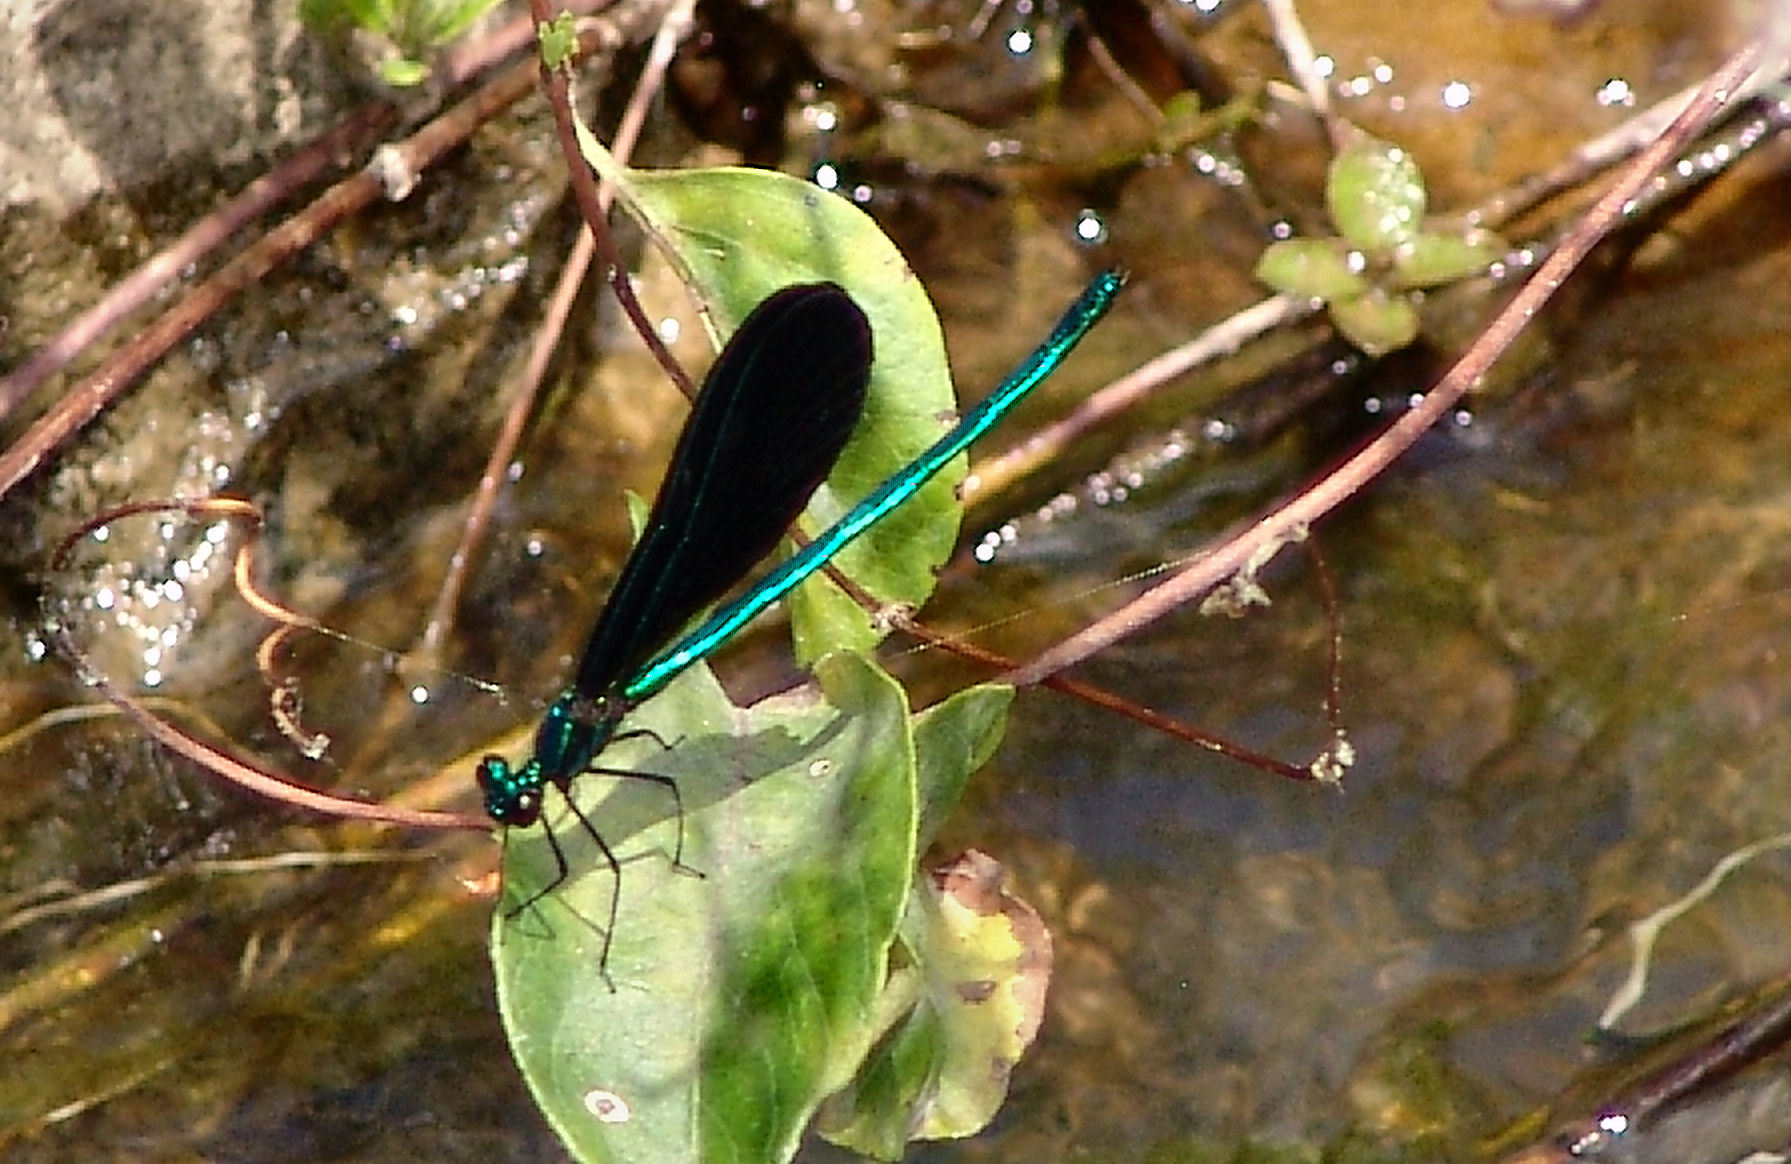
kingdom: Animalia
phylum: Arthropoda
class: Insecta
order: Odonata
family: Calopterygidae
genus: Calopteryx
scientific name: Calopteryx maculata
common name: Ebony jewelwing
